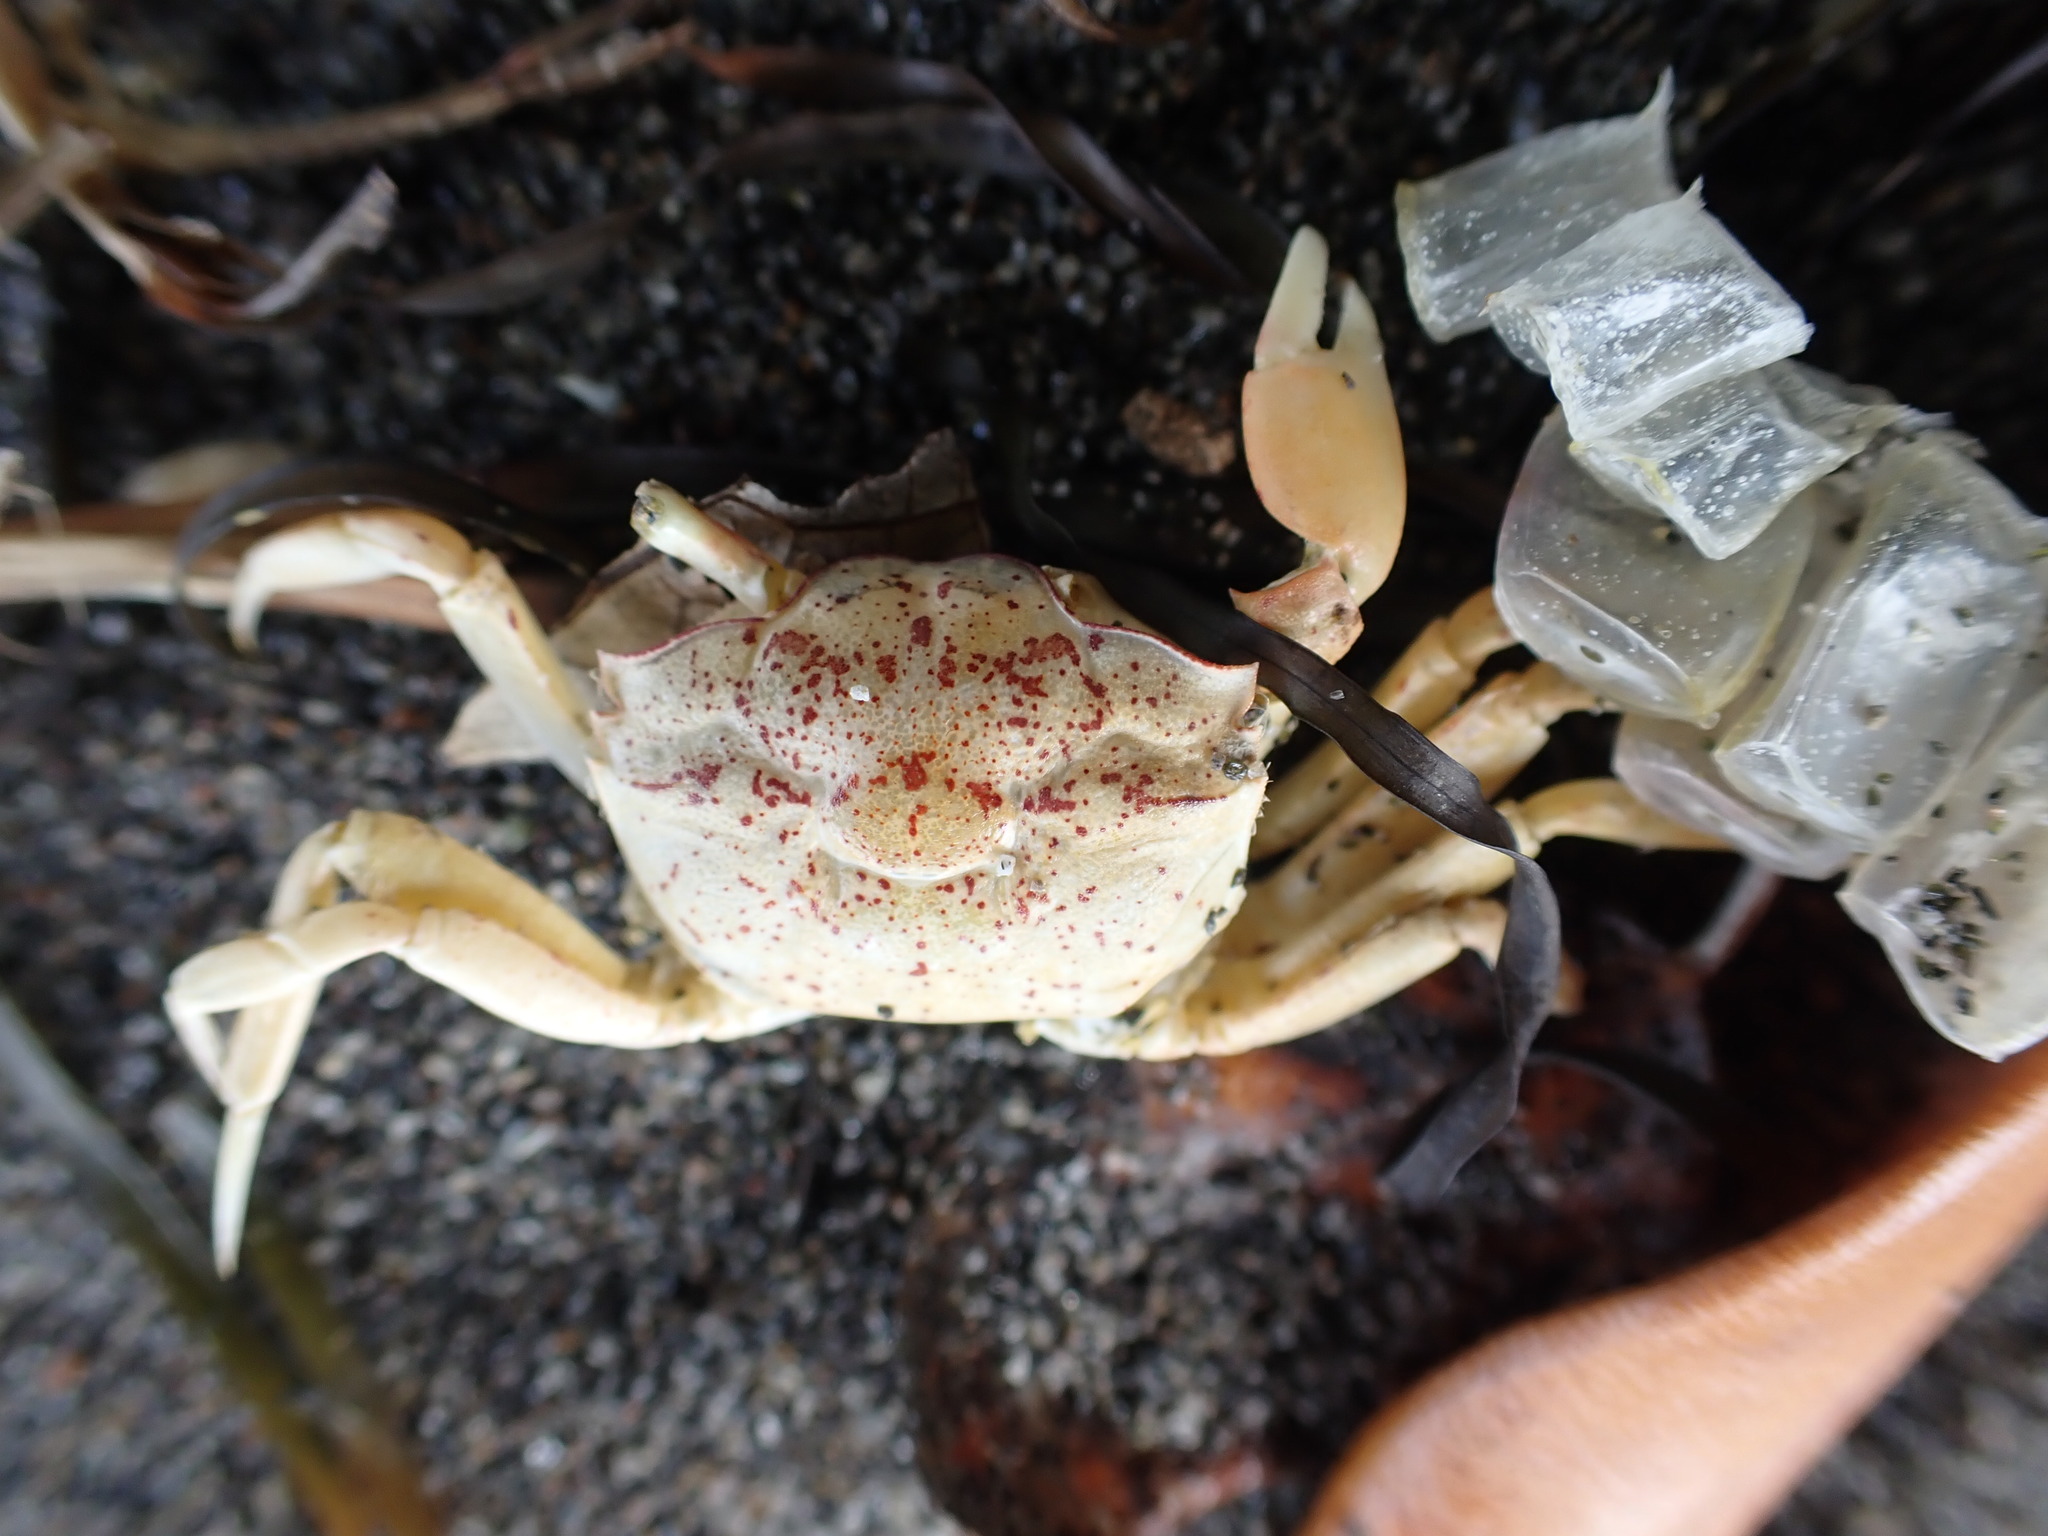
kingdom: Animalia
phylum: Arthropoda
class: Malacostraca
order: Decapoda
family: Macrophthalmidae
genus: Hemiplax
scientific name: Hemiplax hirtipes
